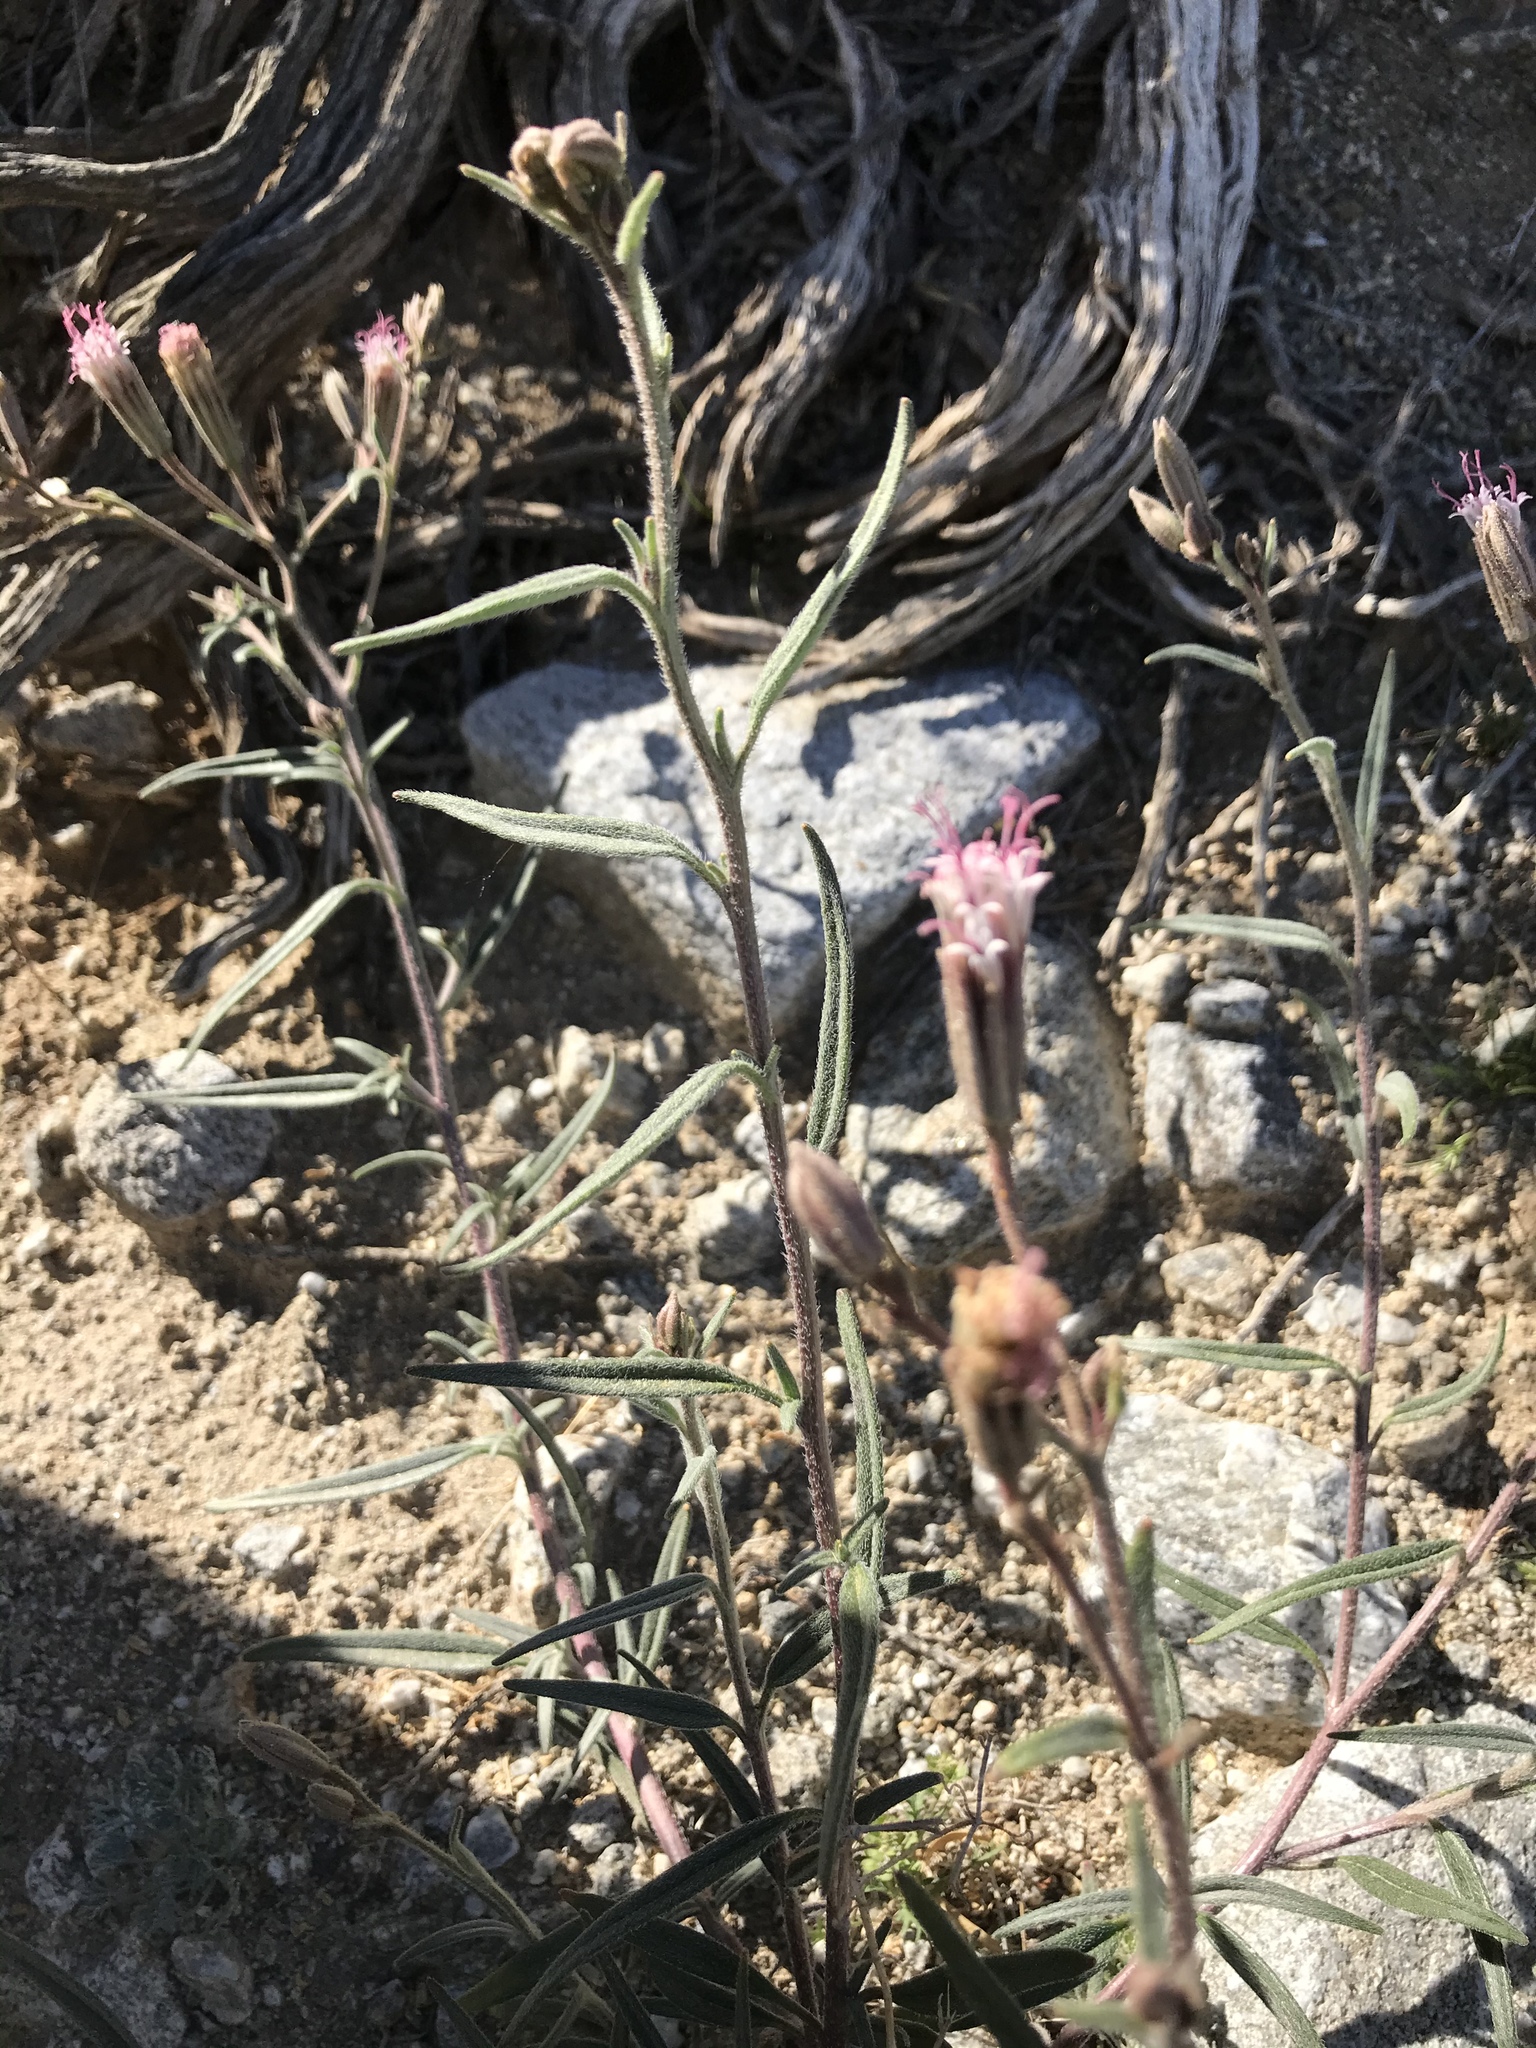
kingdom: Plantae
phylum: Tracheophyta
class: Magnoliopsida
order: Asterales
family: Asteraceae
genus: Palafoxia
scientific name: Palafoxia arida
